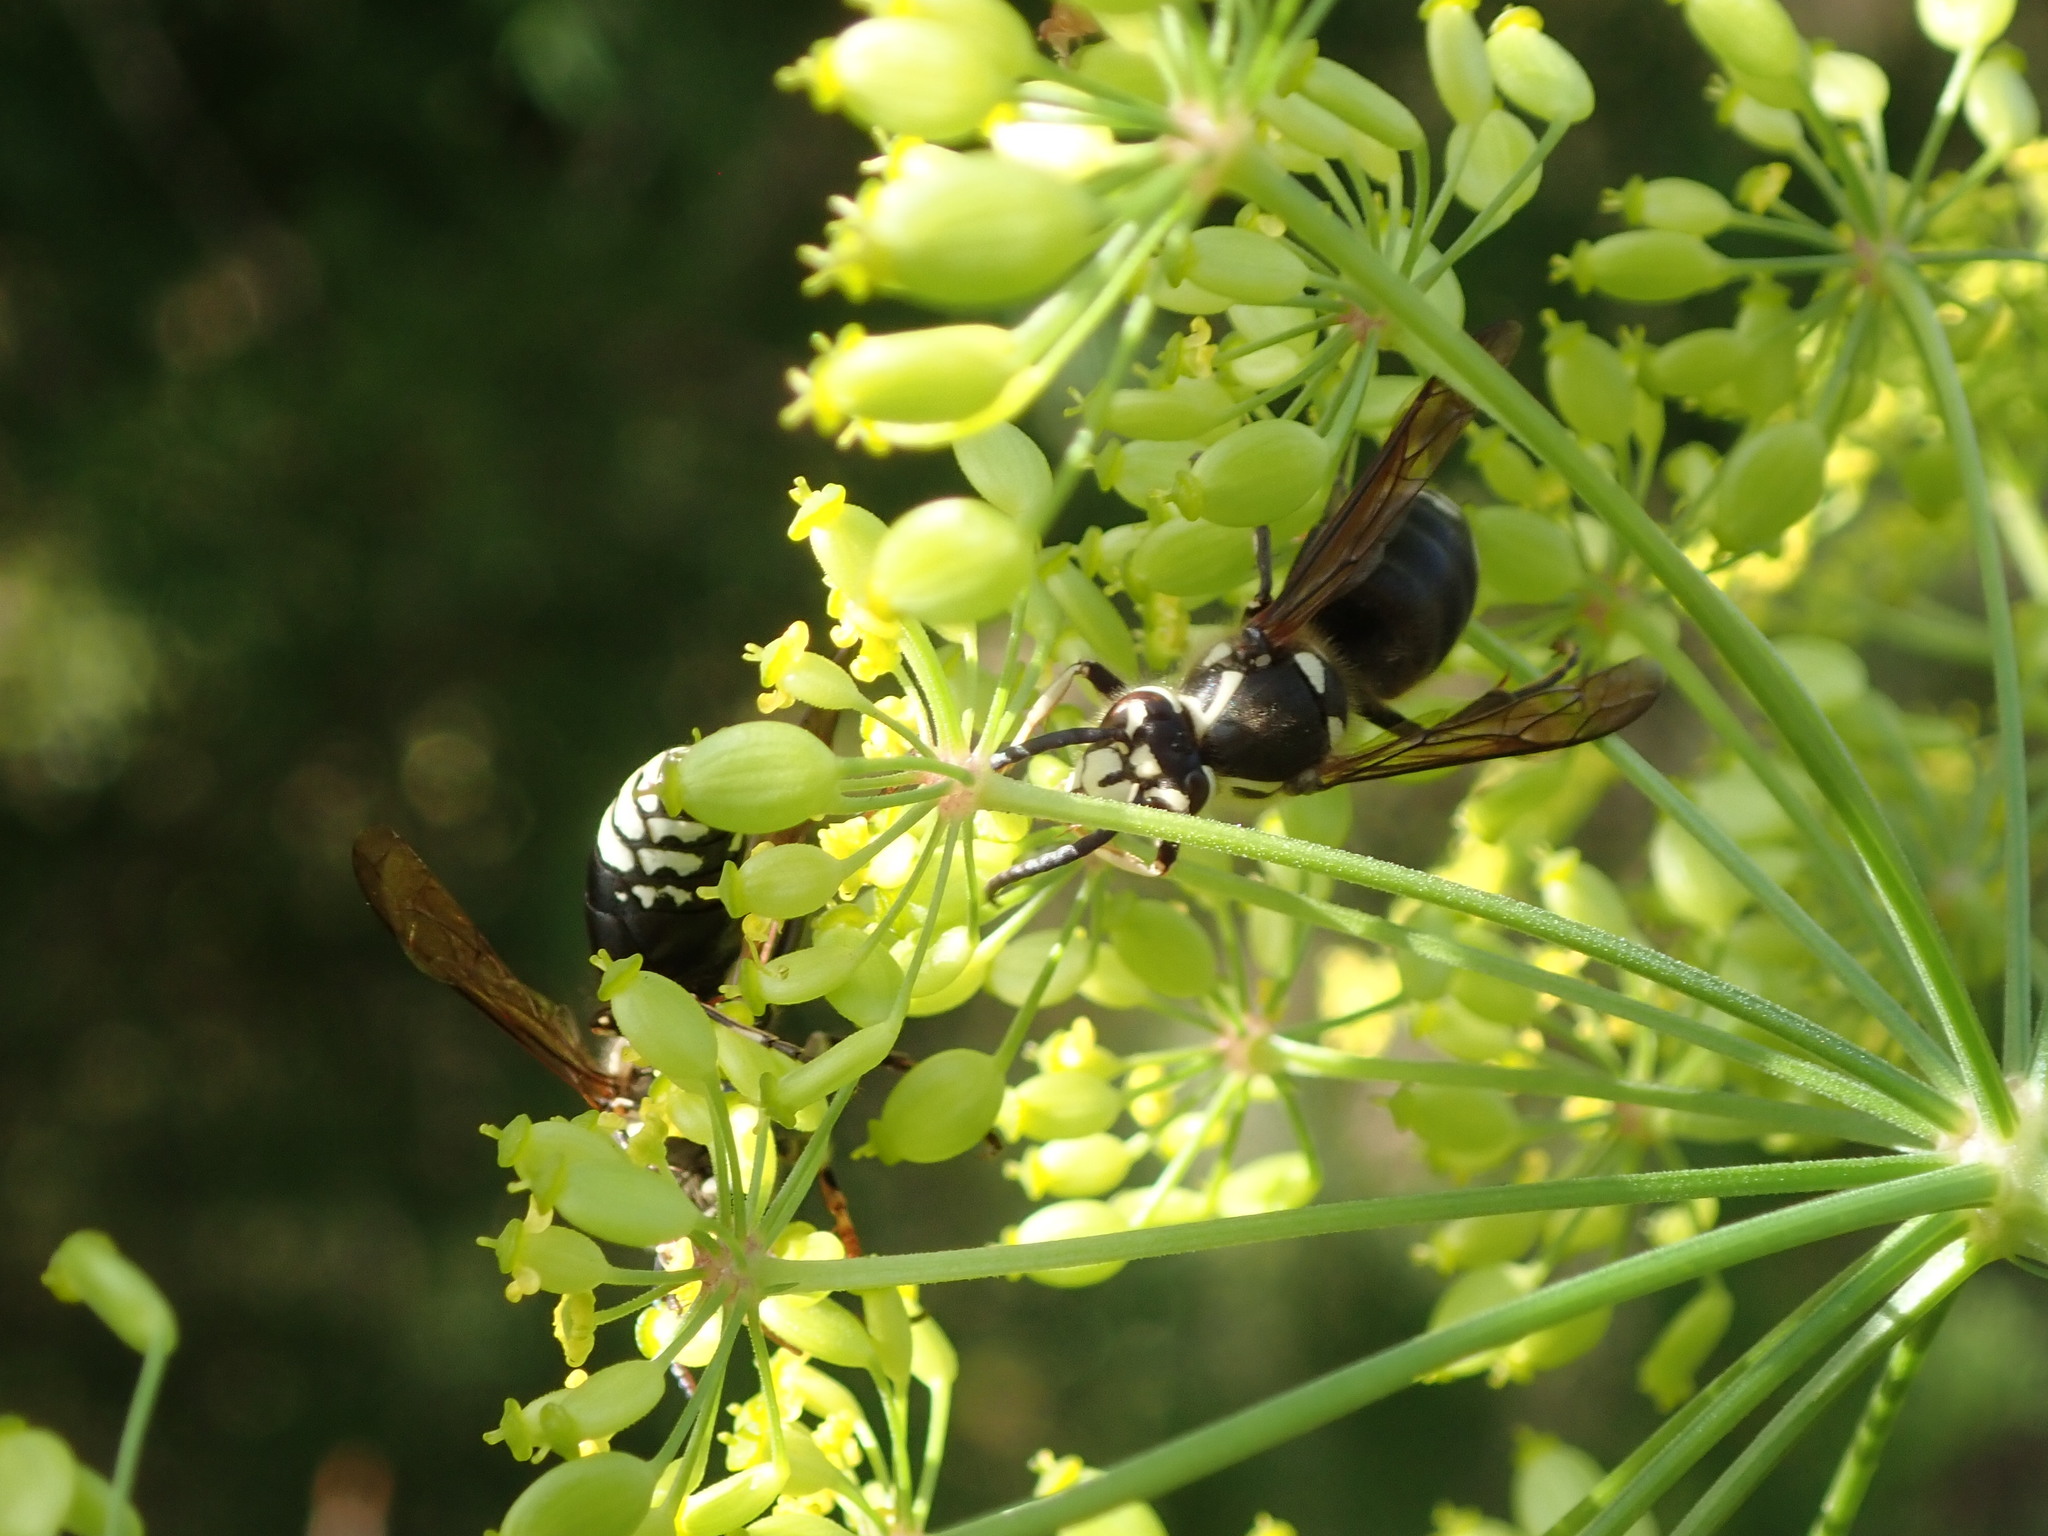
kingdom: Animalia
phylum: Arthropoda
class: Insecta
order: Hymenoptera
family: Vespidae
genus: Dolichovespula
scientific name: Dolichovespula maculata
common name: Bald-faced hornet
